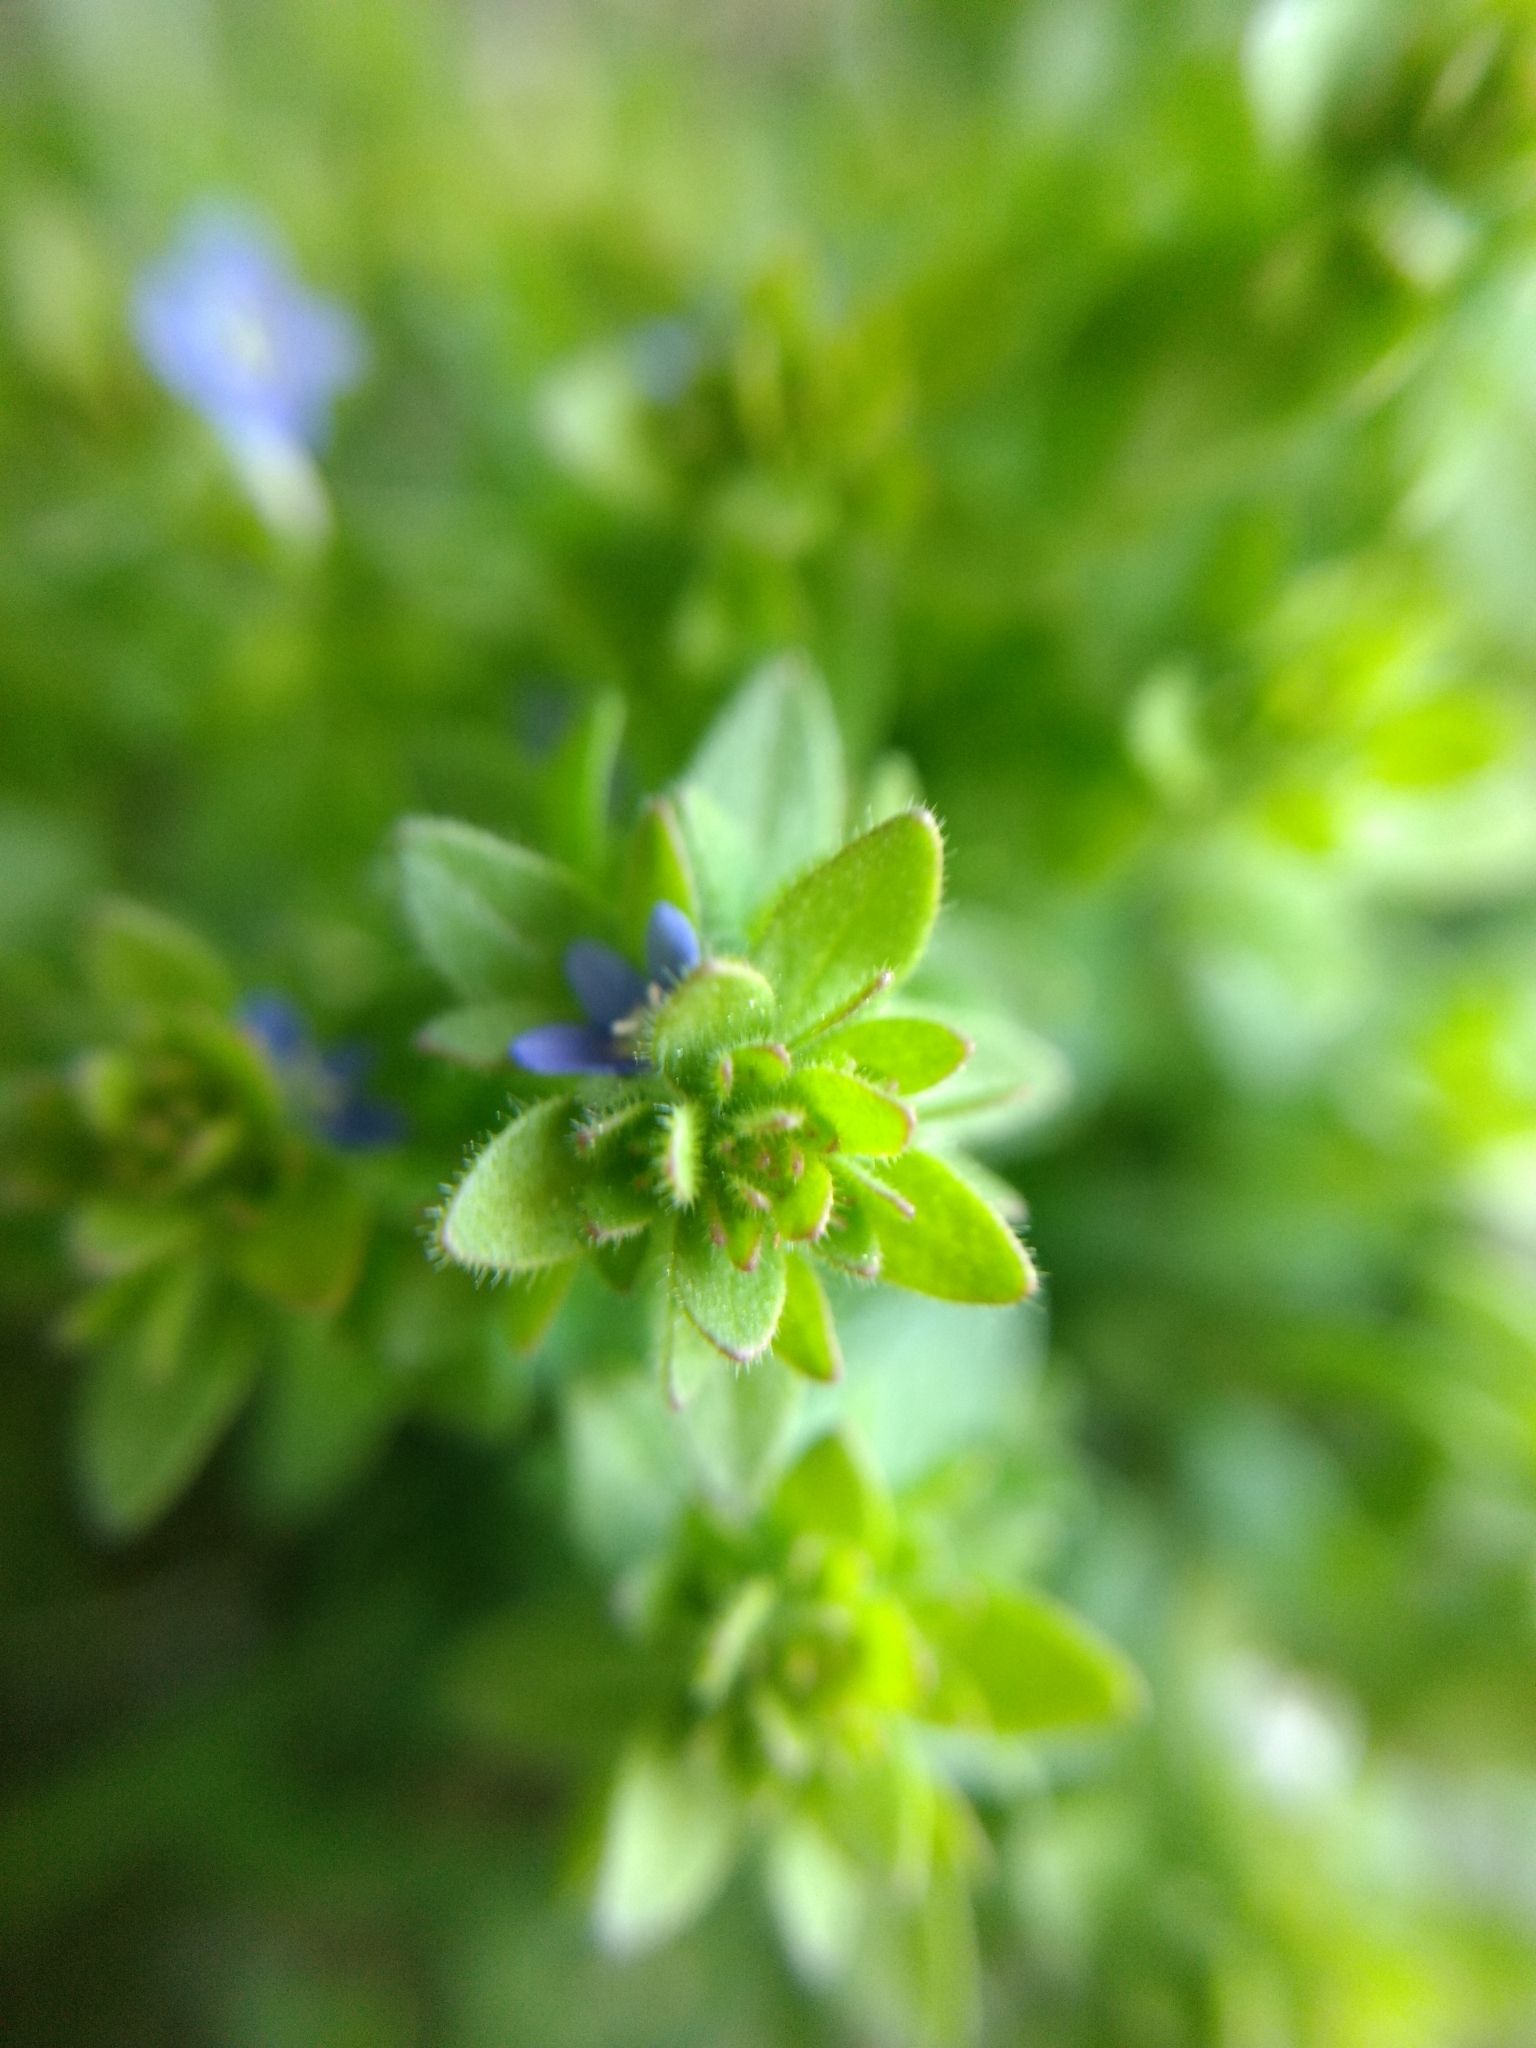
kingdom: Plantae
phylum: Tracheophyta
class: Magnoliopsida
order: Lamiales
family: Plantaginaceae
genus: Veronica
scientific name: Veronica arvensis
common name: Corn speedwell
